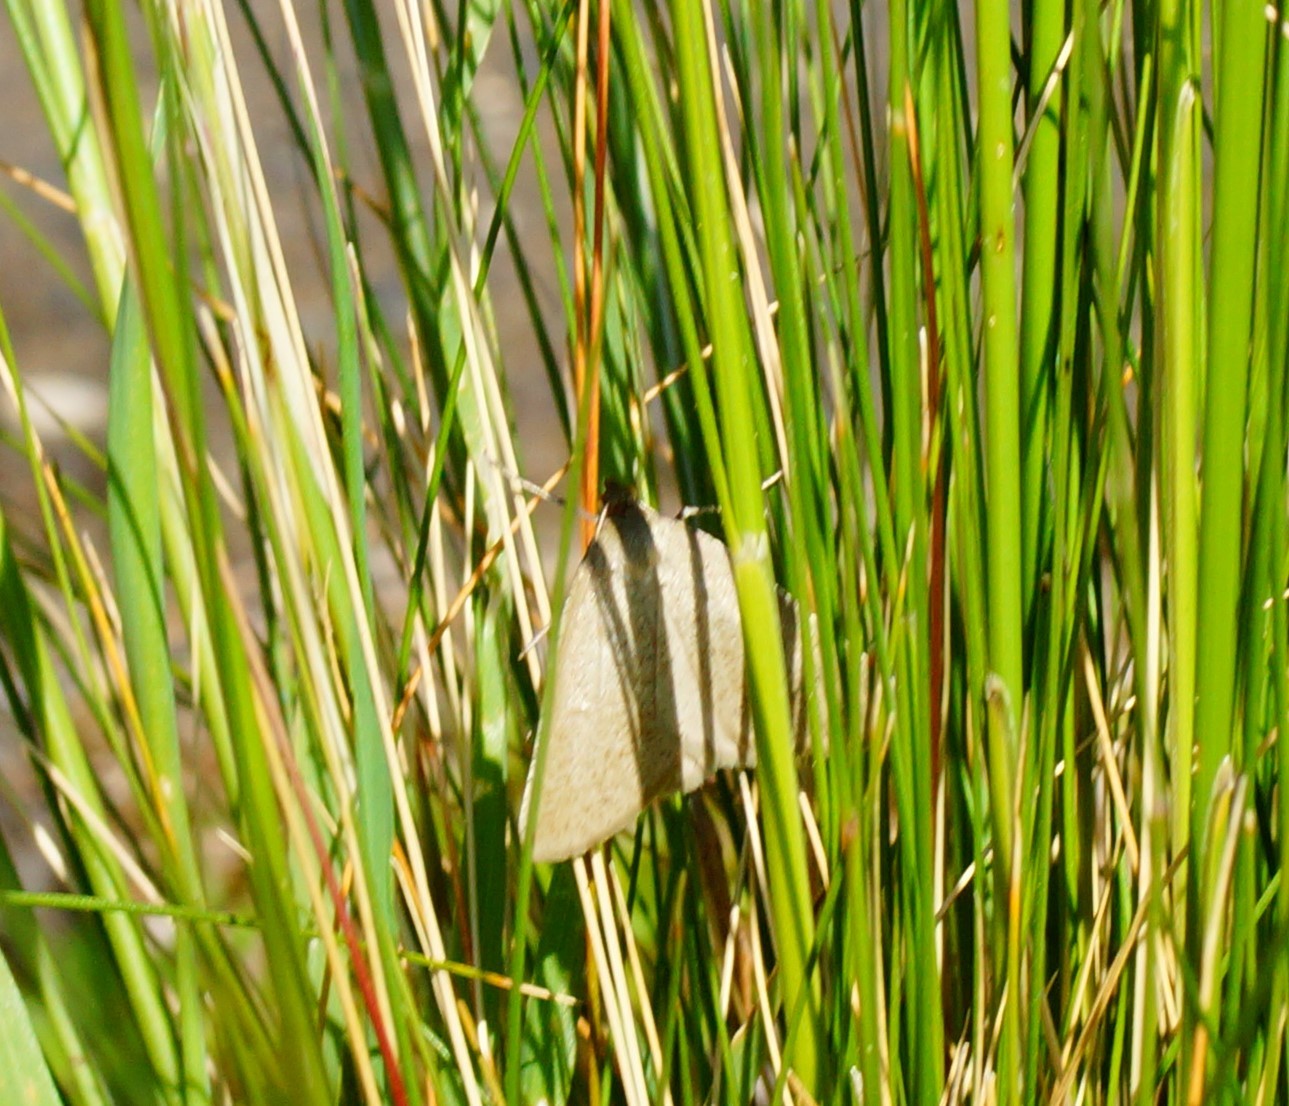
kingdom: Animalia
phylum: Arthropoda
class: Insecta
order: Lepidoptera
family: Geometridae
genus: Neritodes
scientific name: Neritodes verrucata
